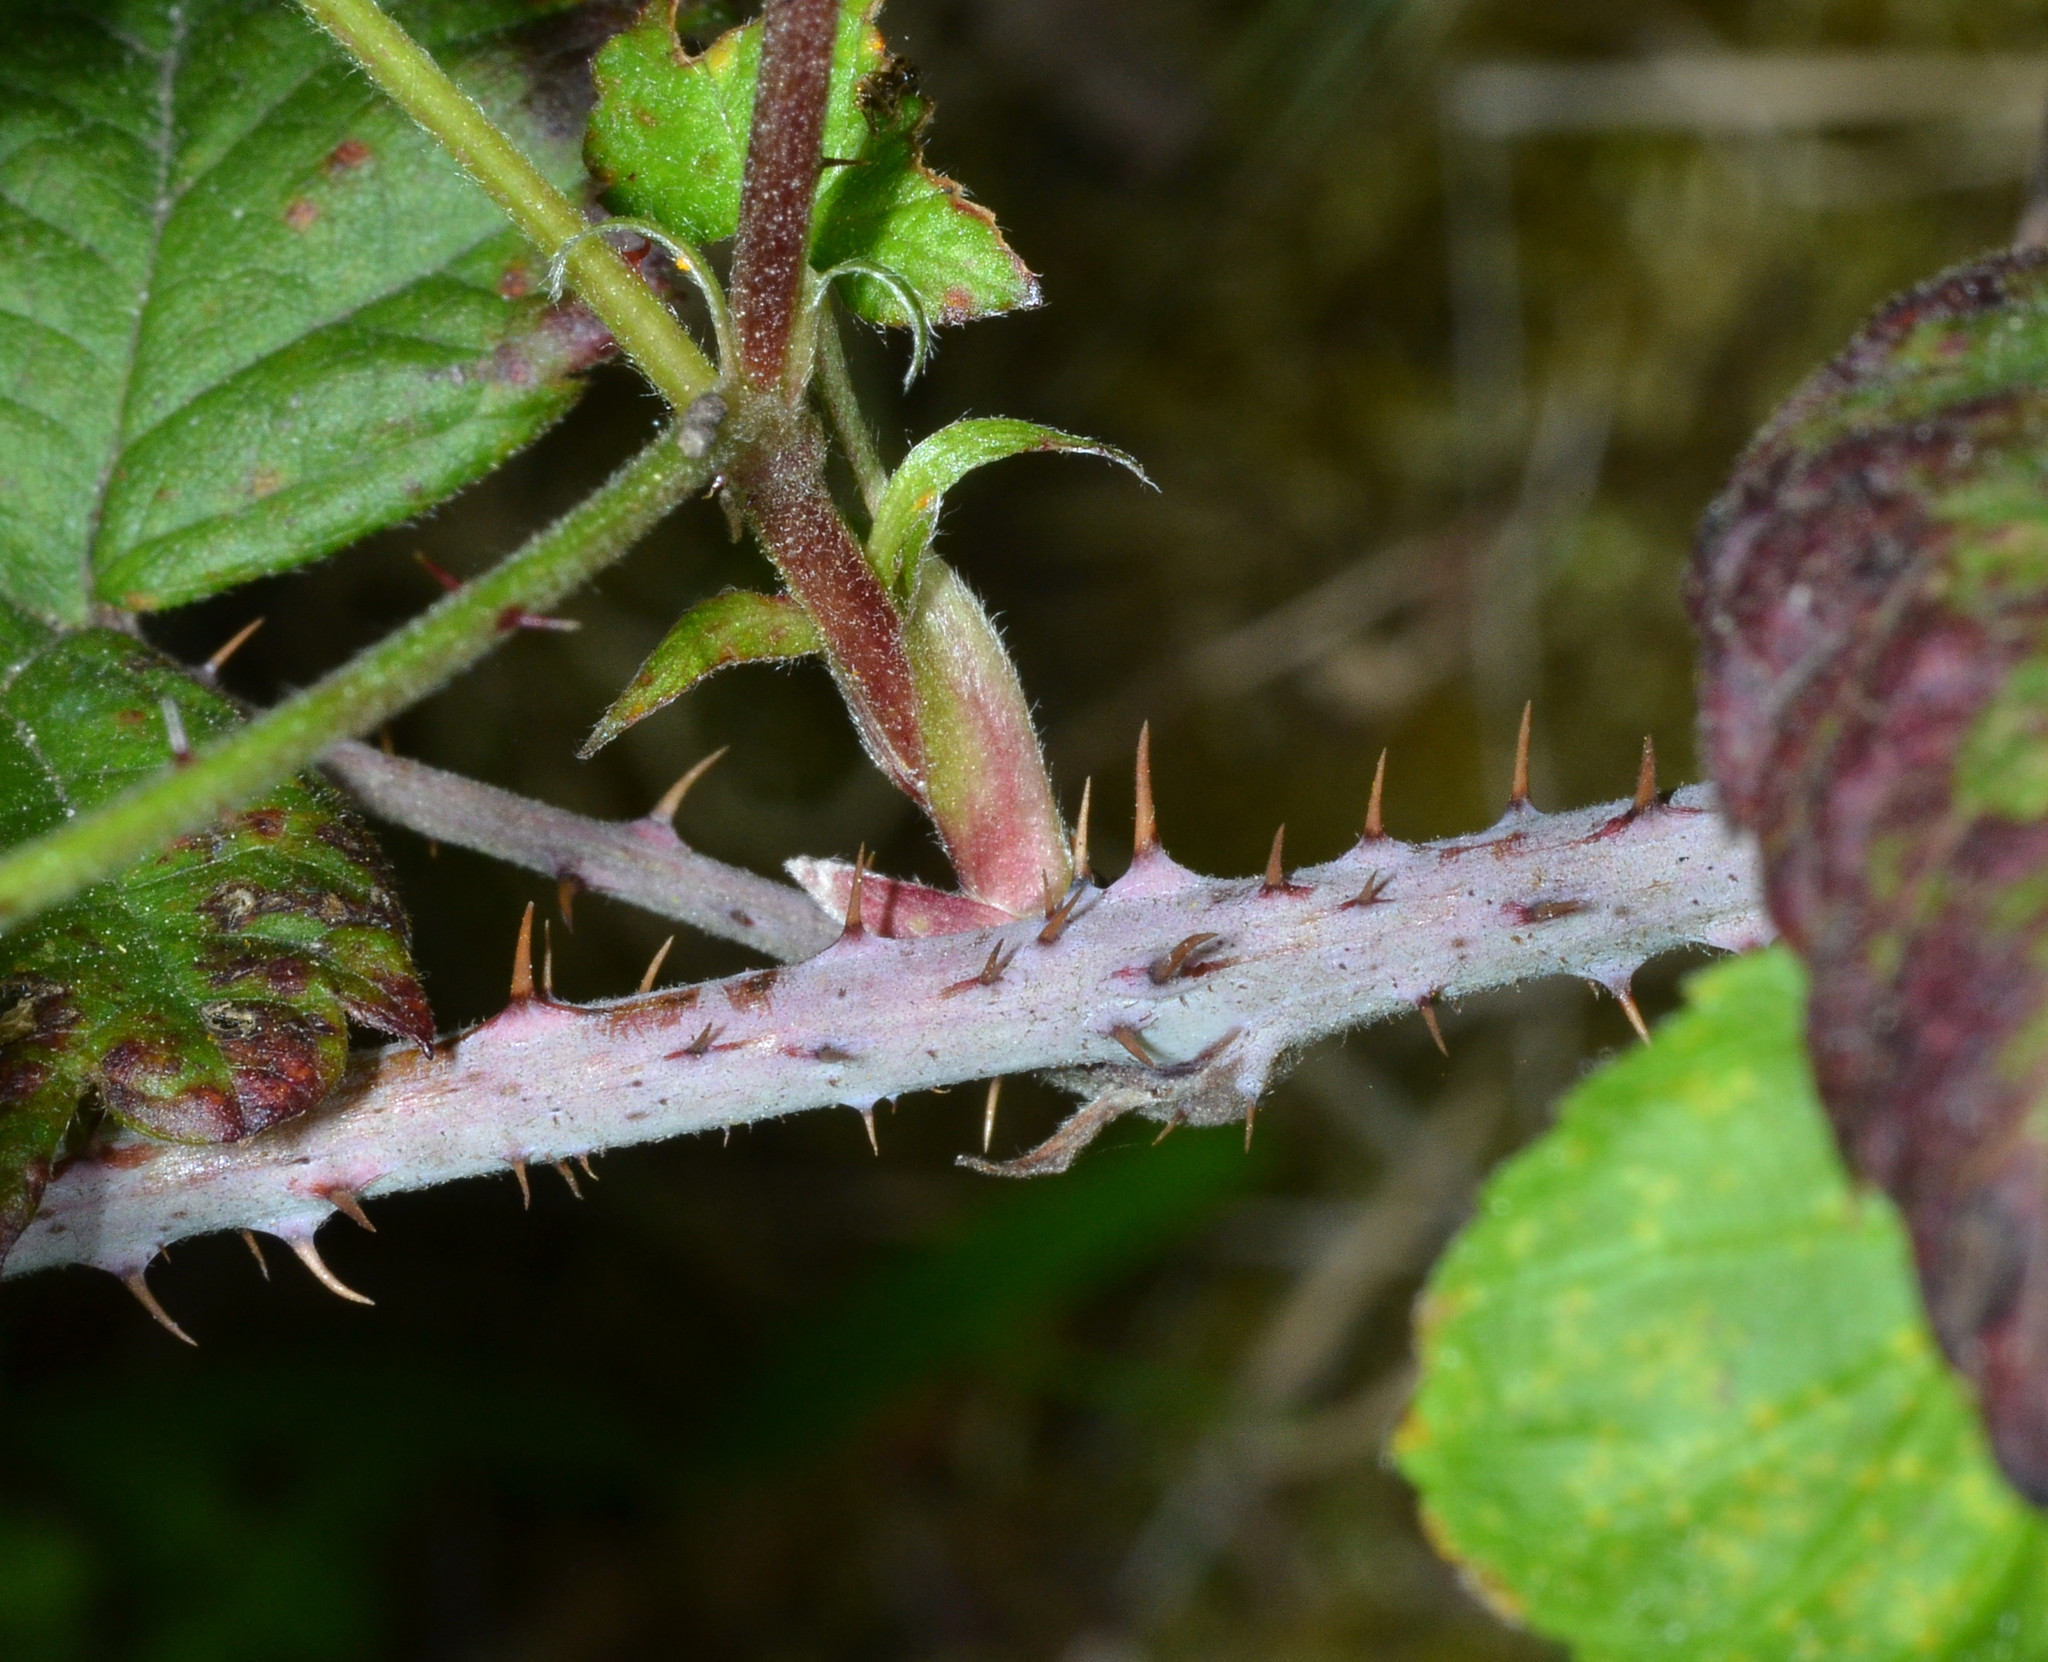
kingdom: Plantae
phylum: Tracheophyta
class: Magnoliopsida
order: Rosales
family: Rosaceae
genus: Rubus
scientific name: Rubus ursinus
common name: Pacific blackberry
